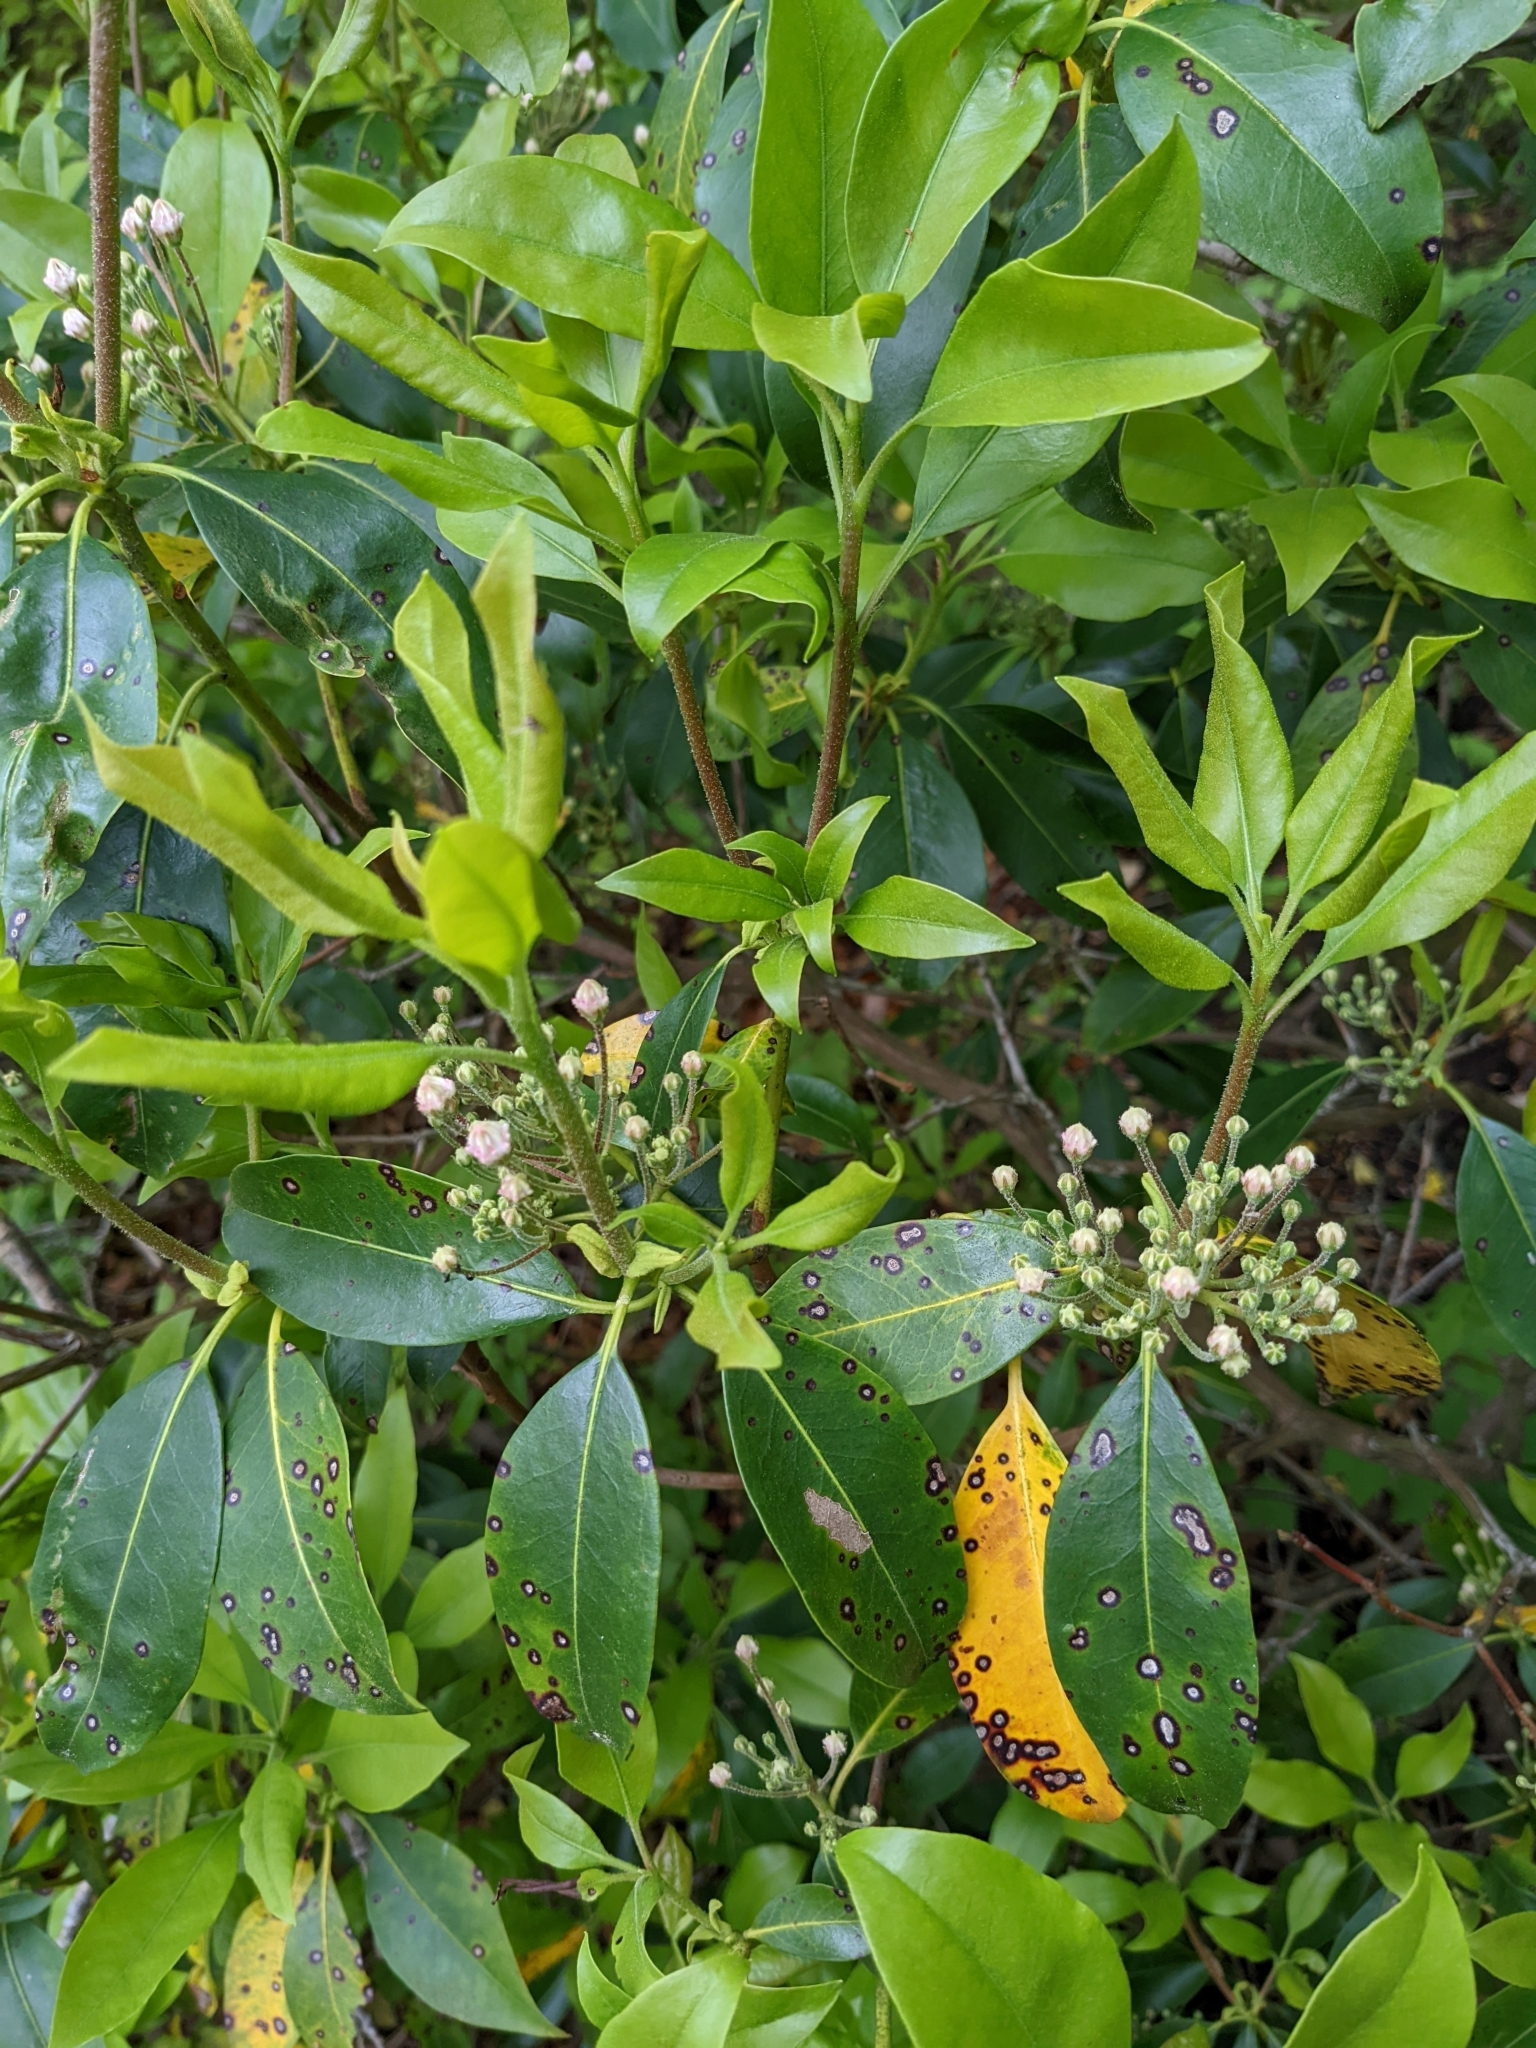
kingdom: Plantae
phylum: Tracheophyta
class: Magnoliopsida
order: Ericales
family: Ericaceae
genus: Kalmia
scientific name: Kalmia latifolia
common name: Mountain-laurel
